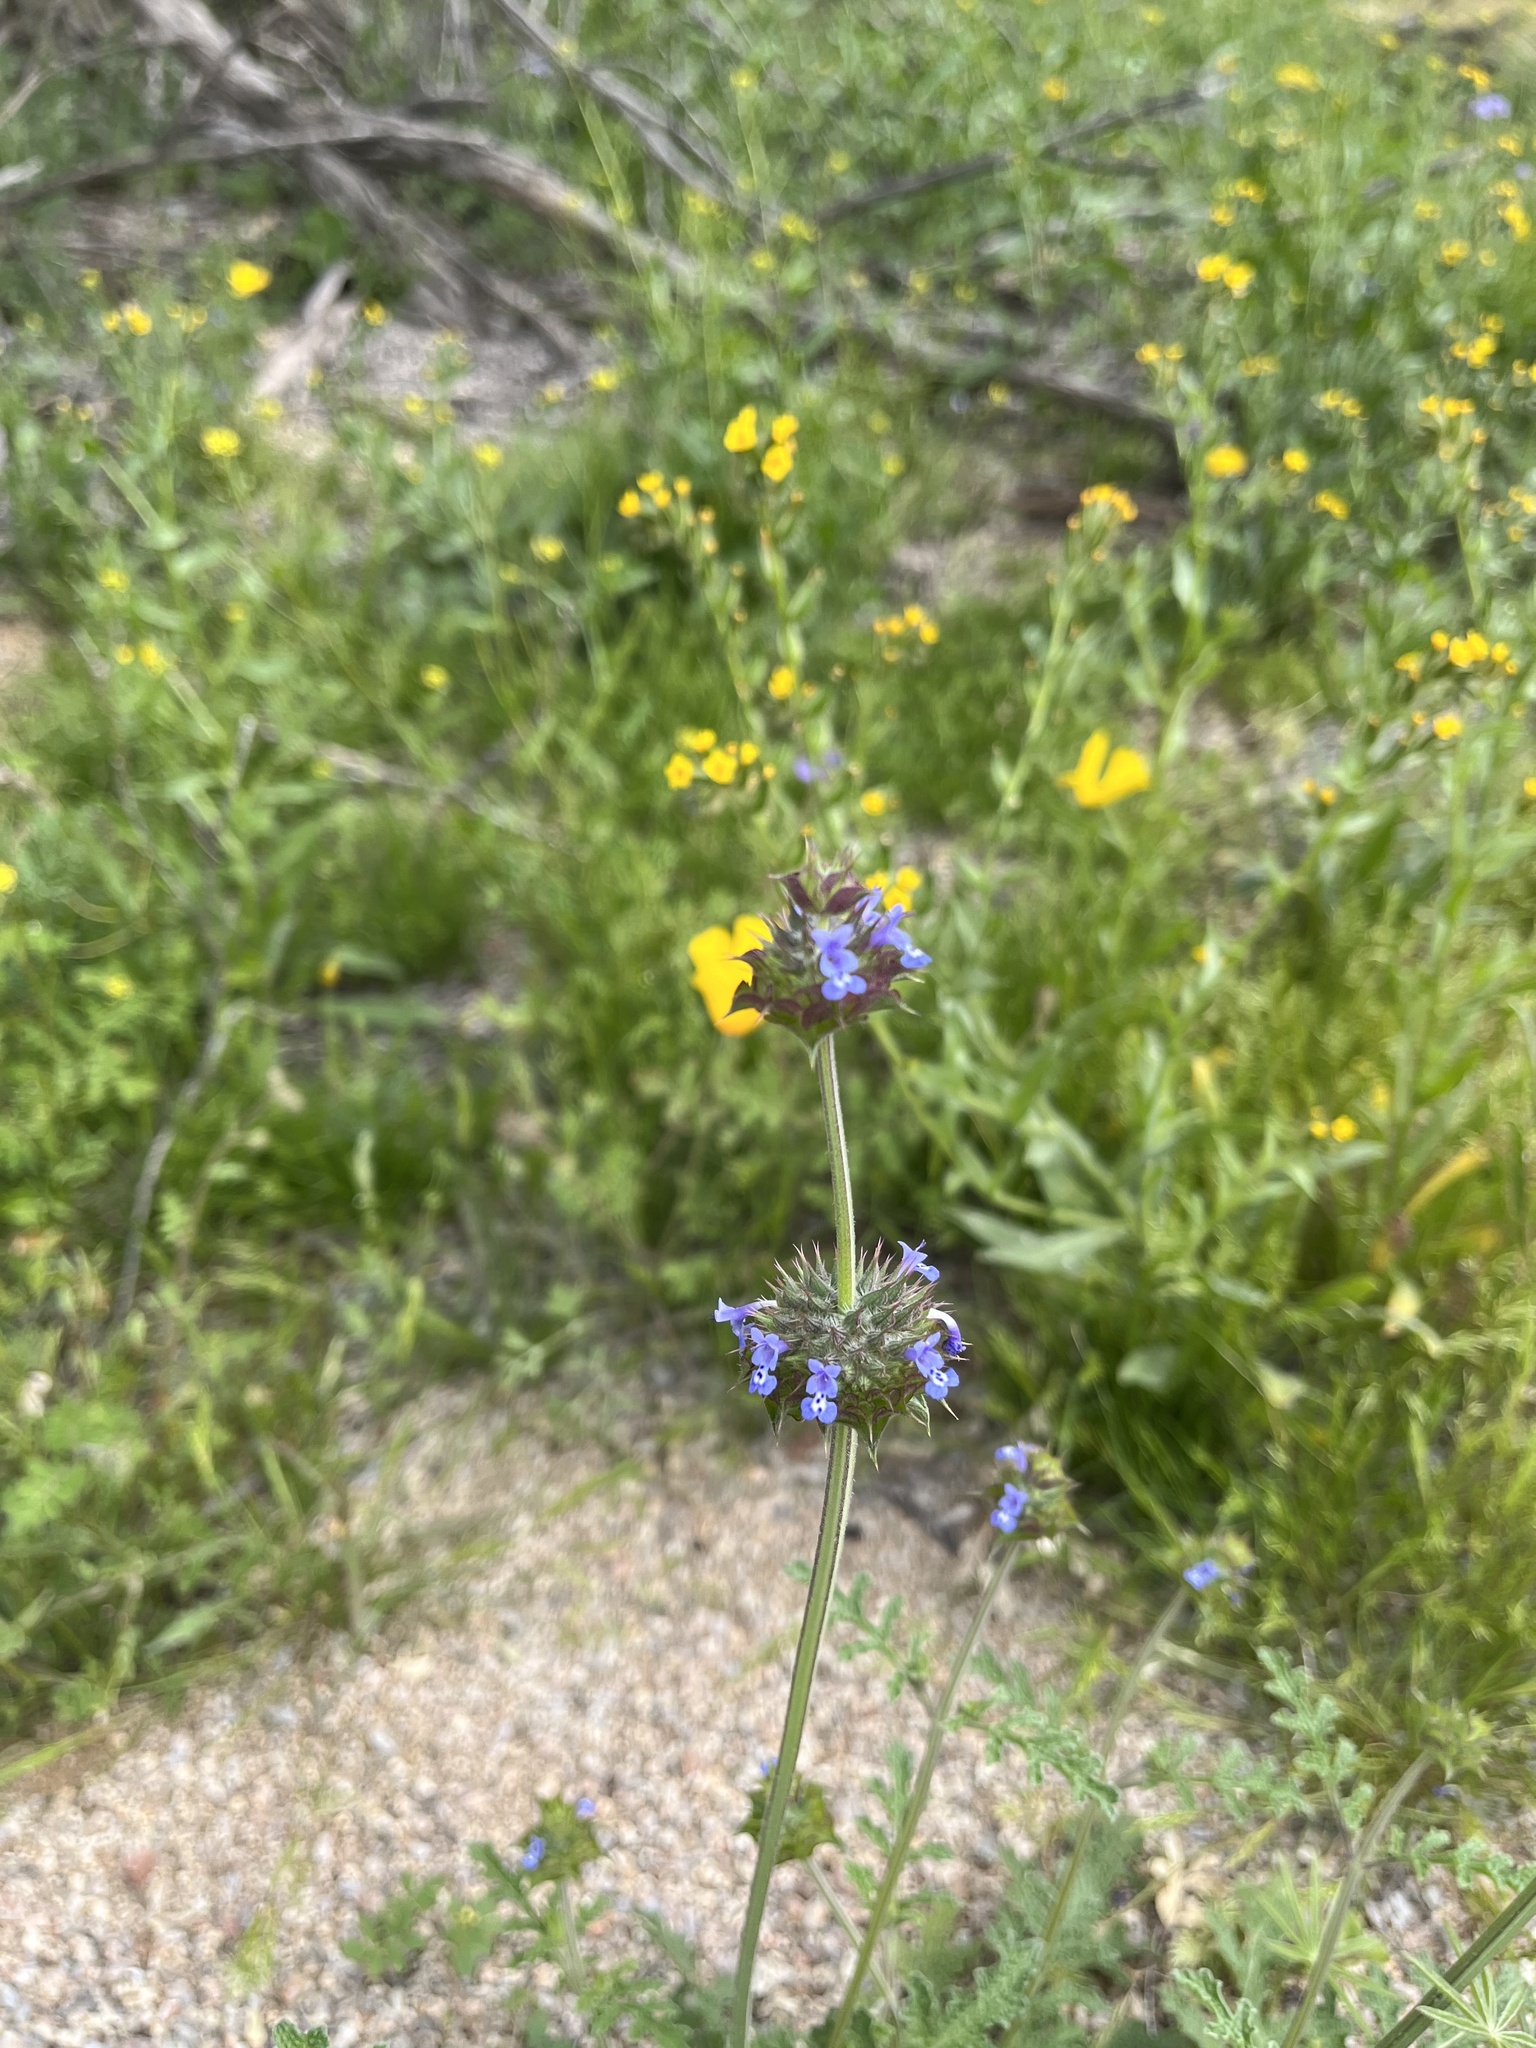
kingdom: Plantae
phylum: Tracheophyta
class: Magnoliopsida
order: Lamiales
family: Lamiaceae
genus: Salvia
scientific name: Salvia columbariae
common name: Chia
